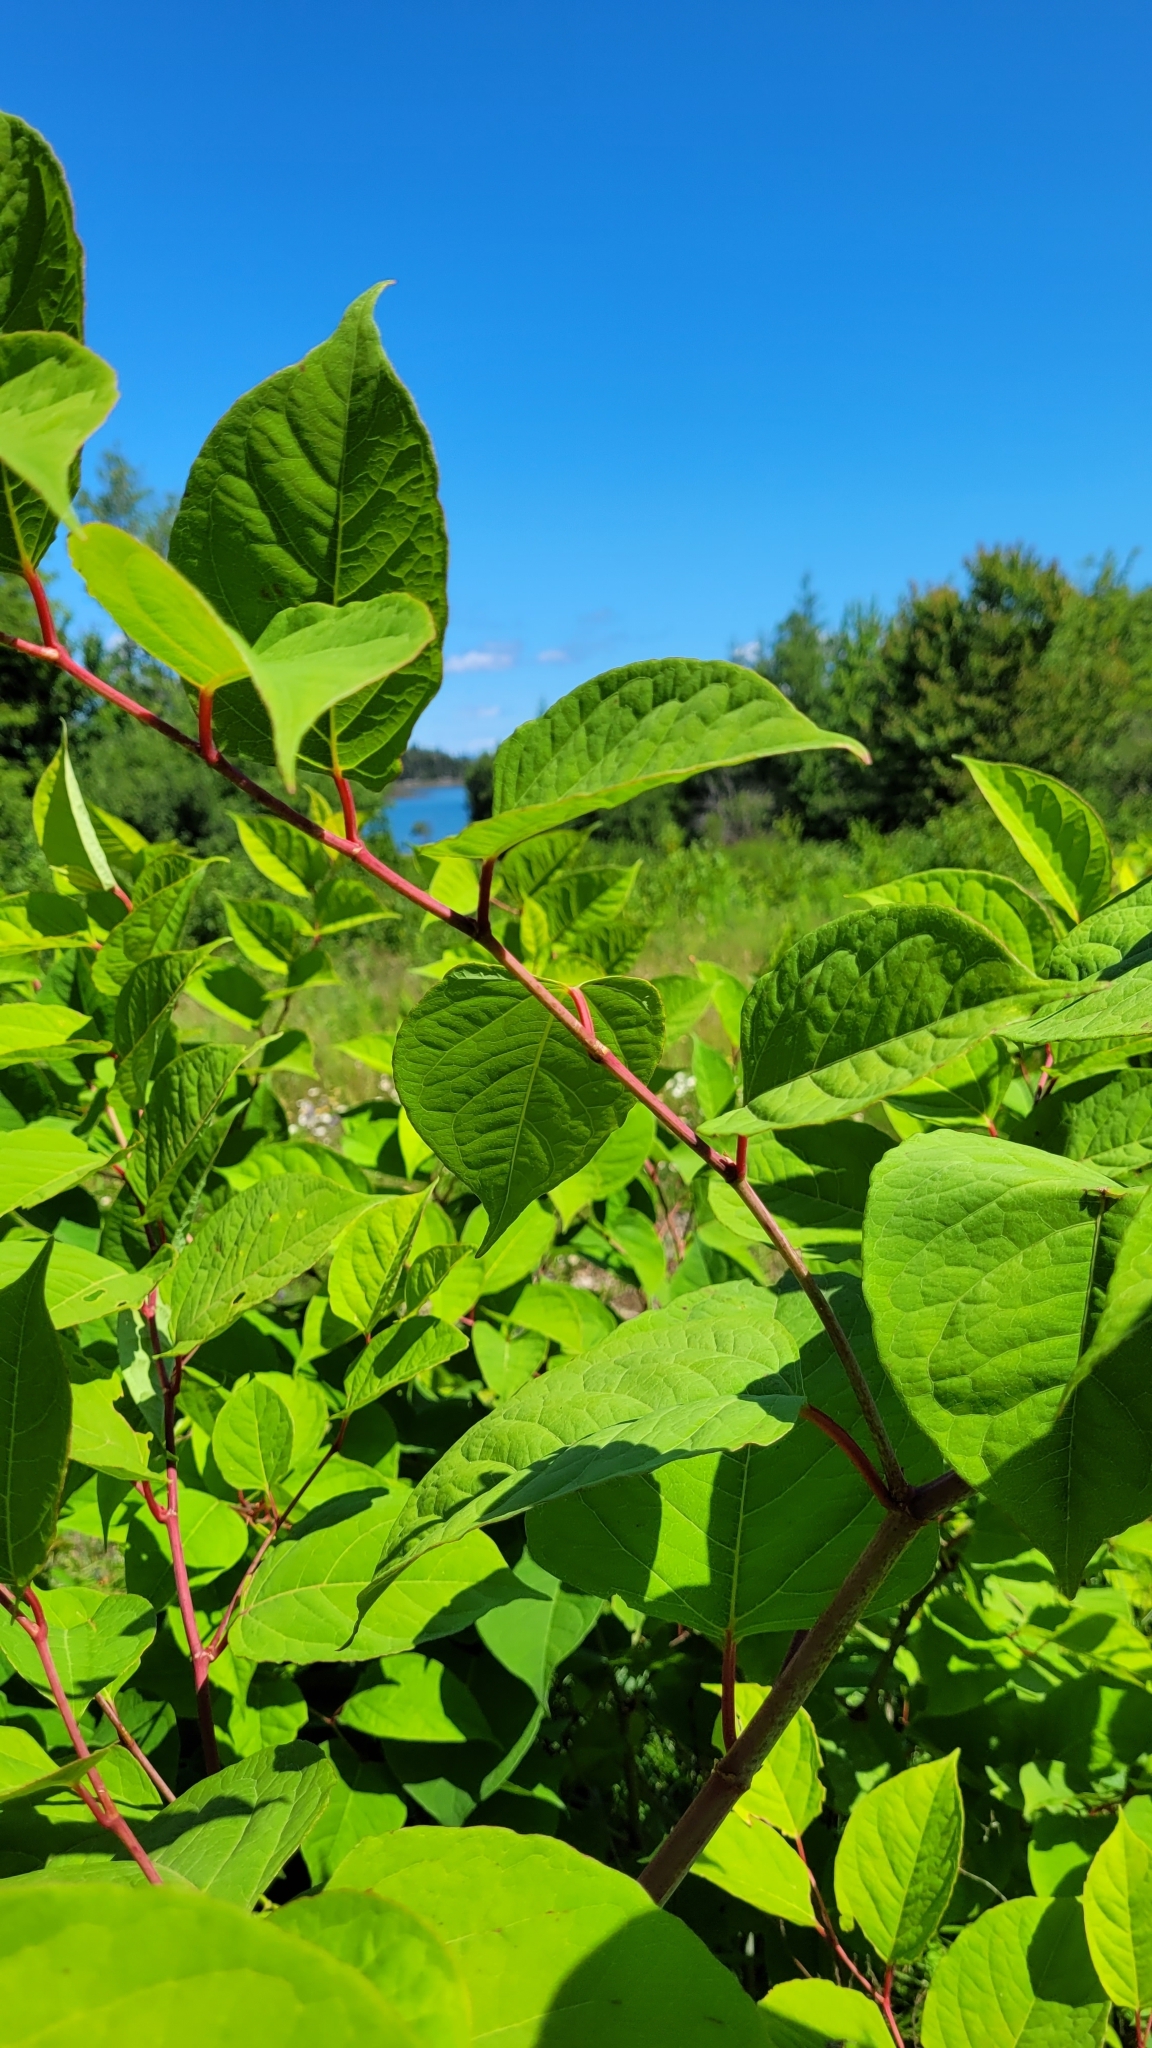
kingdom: Plantae
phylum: Tracheophyta
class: Magnoliopsida
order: Caryophyllales
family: Polygonaceae
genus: Reynoutria
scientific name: Reynoutria japonica
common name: Japanese knotweed
